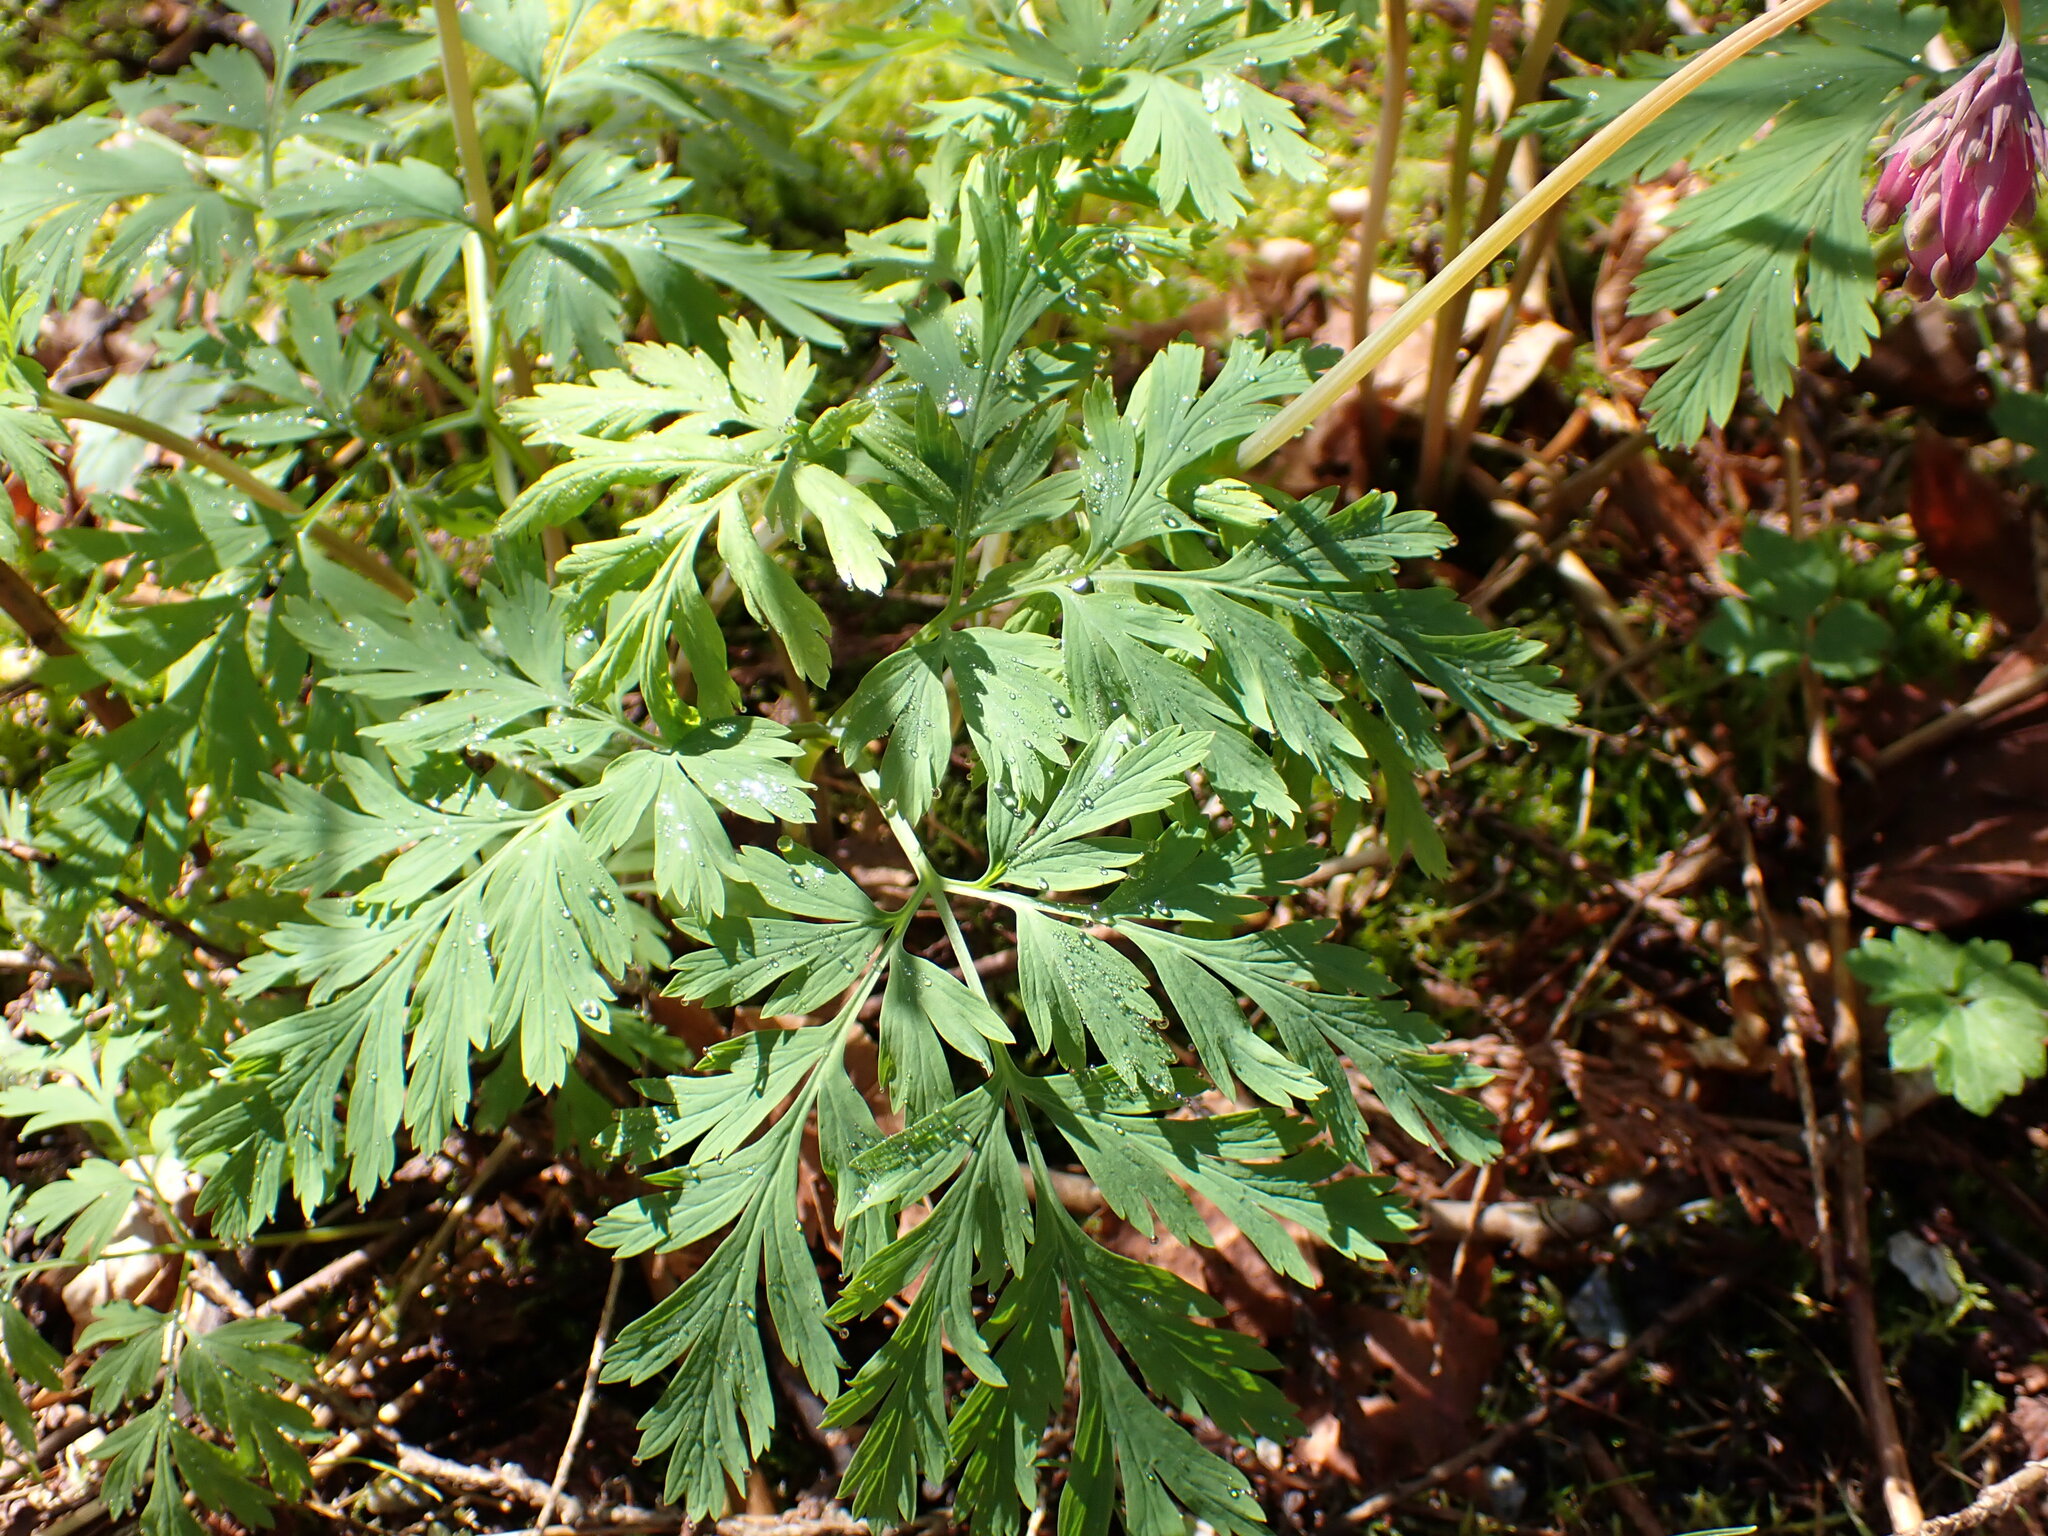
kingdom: Plantae
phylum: Tracheophyta
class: Magnoliopsida
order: Ranunculales
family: Papaveraceae
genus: Dicentra
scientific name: Dicentra formosa
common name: Bleeding-heart
